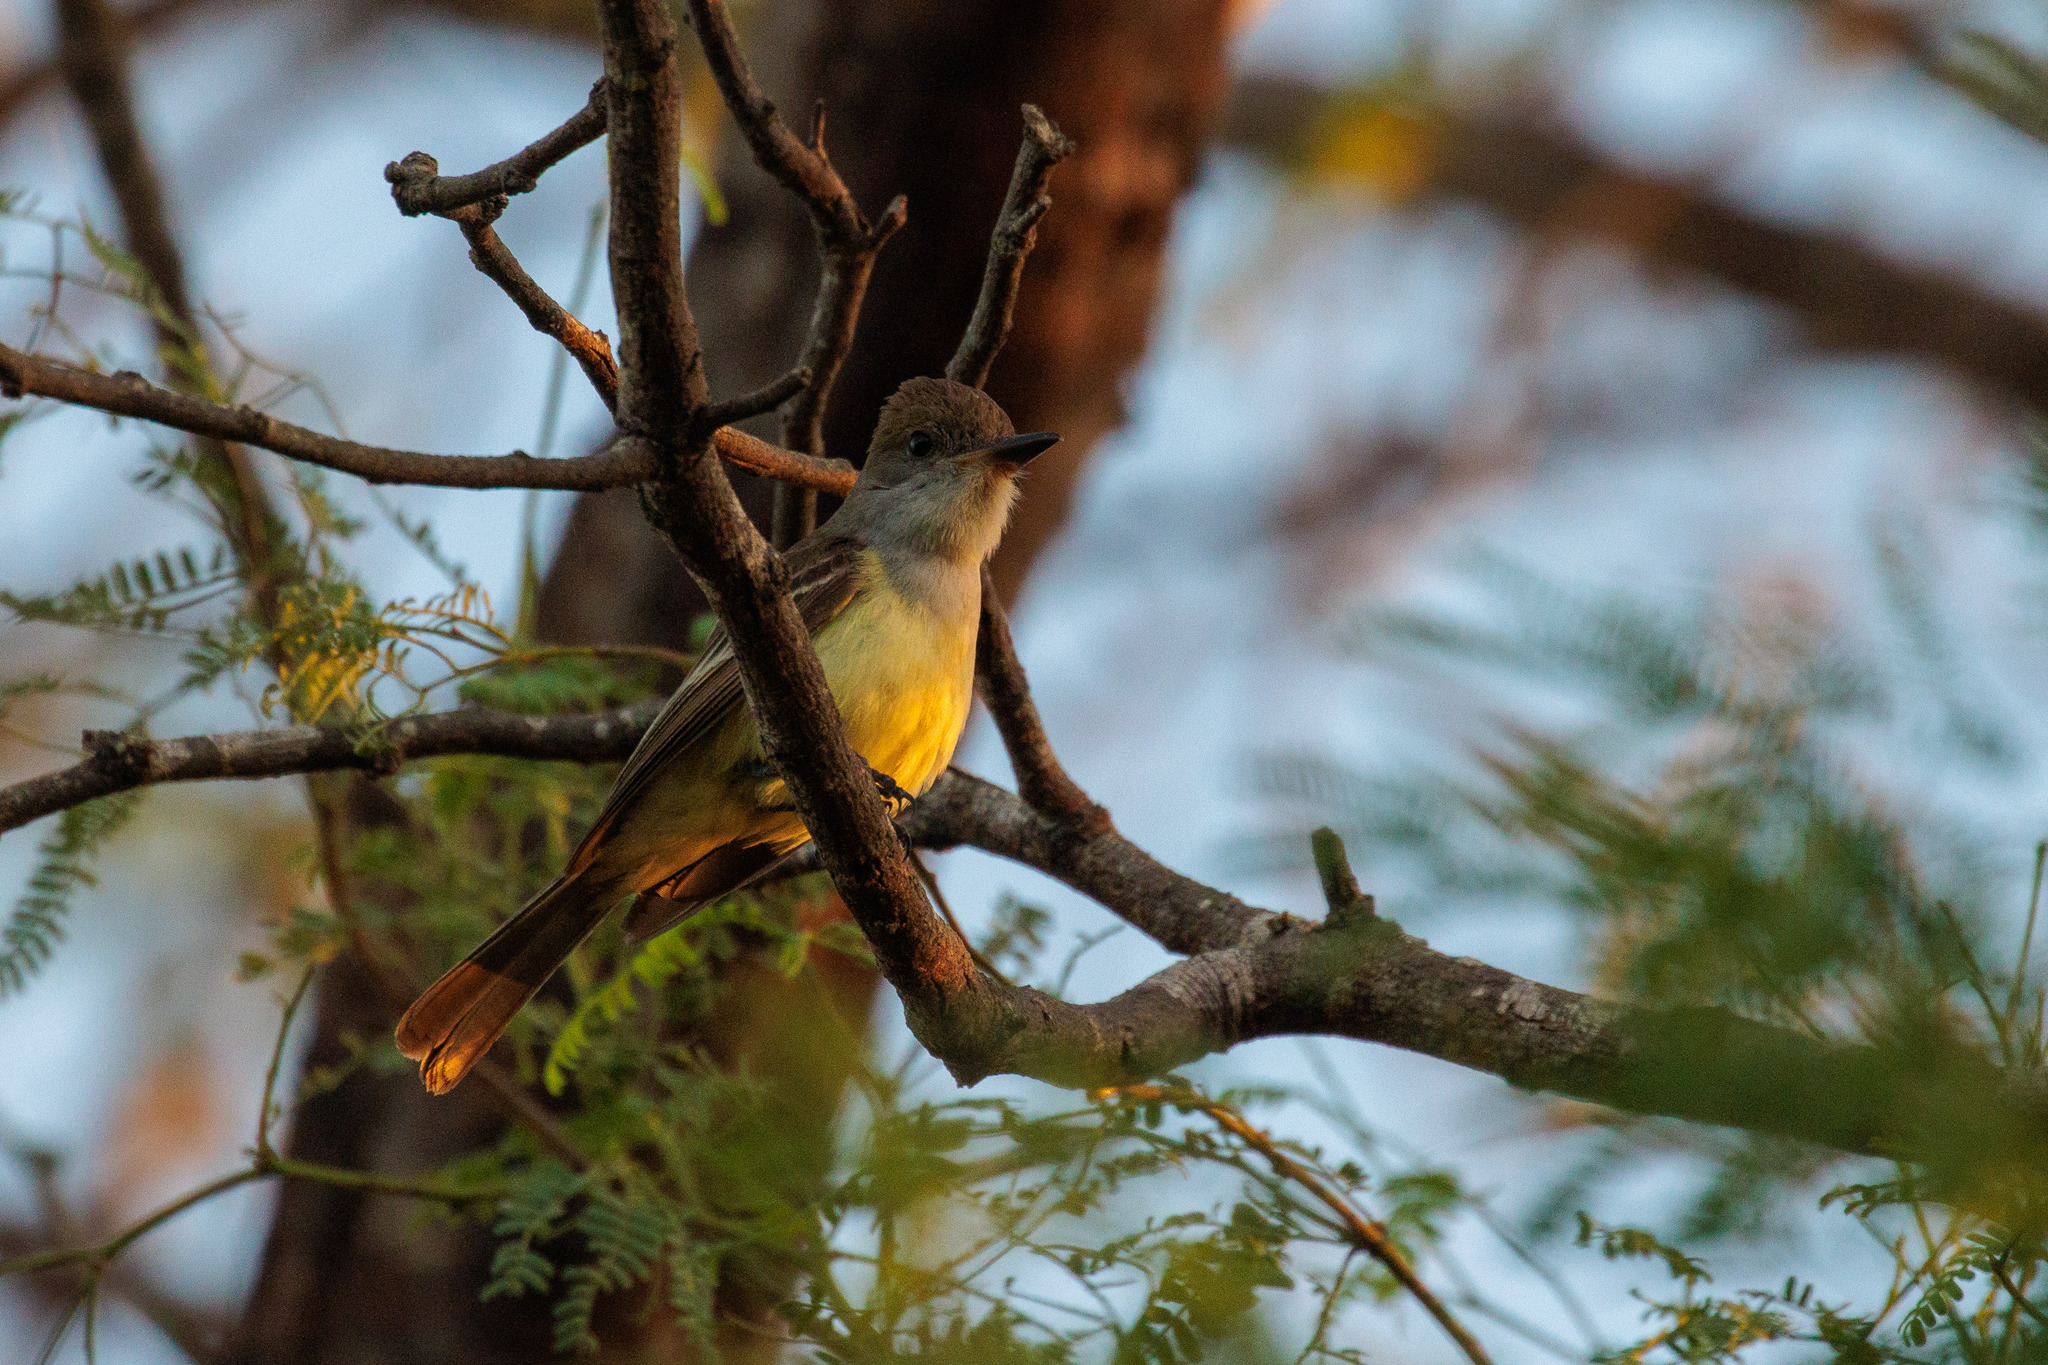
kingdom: Animalia
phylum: Chordata
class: Aves
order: Passeriformes
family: Tyrannidae
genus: Myiarchus
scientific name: Myiarchus tyrannulus
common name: Brown-crested flycatcher
